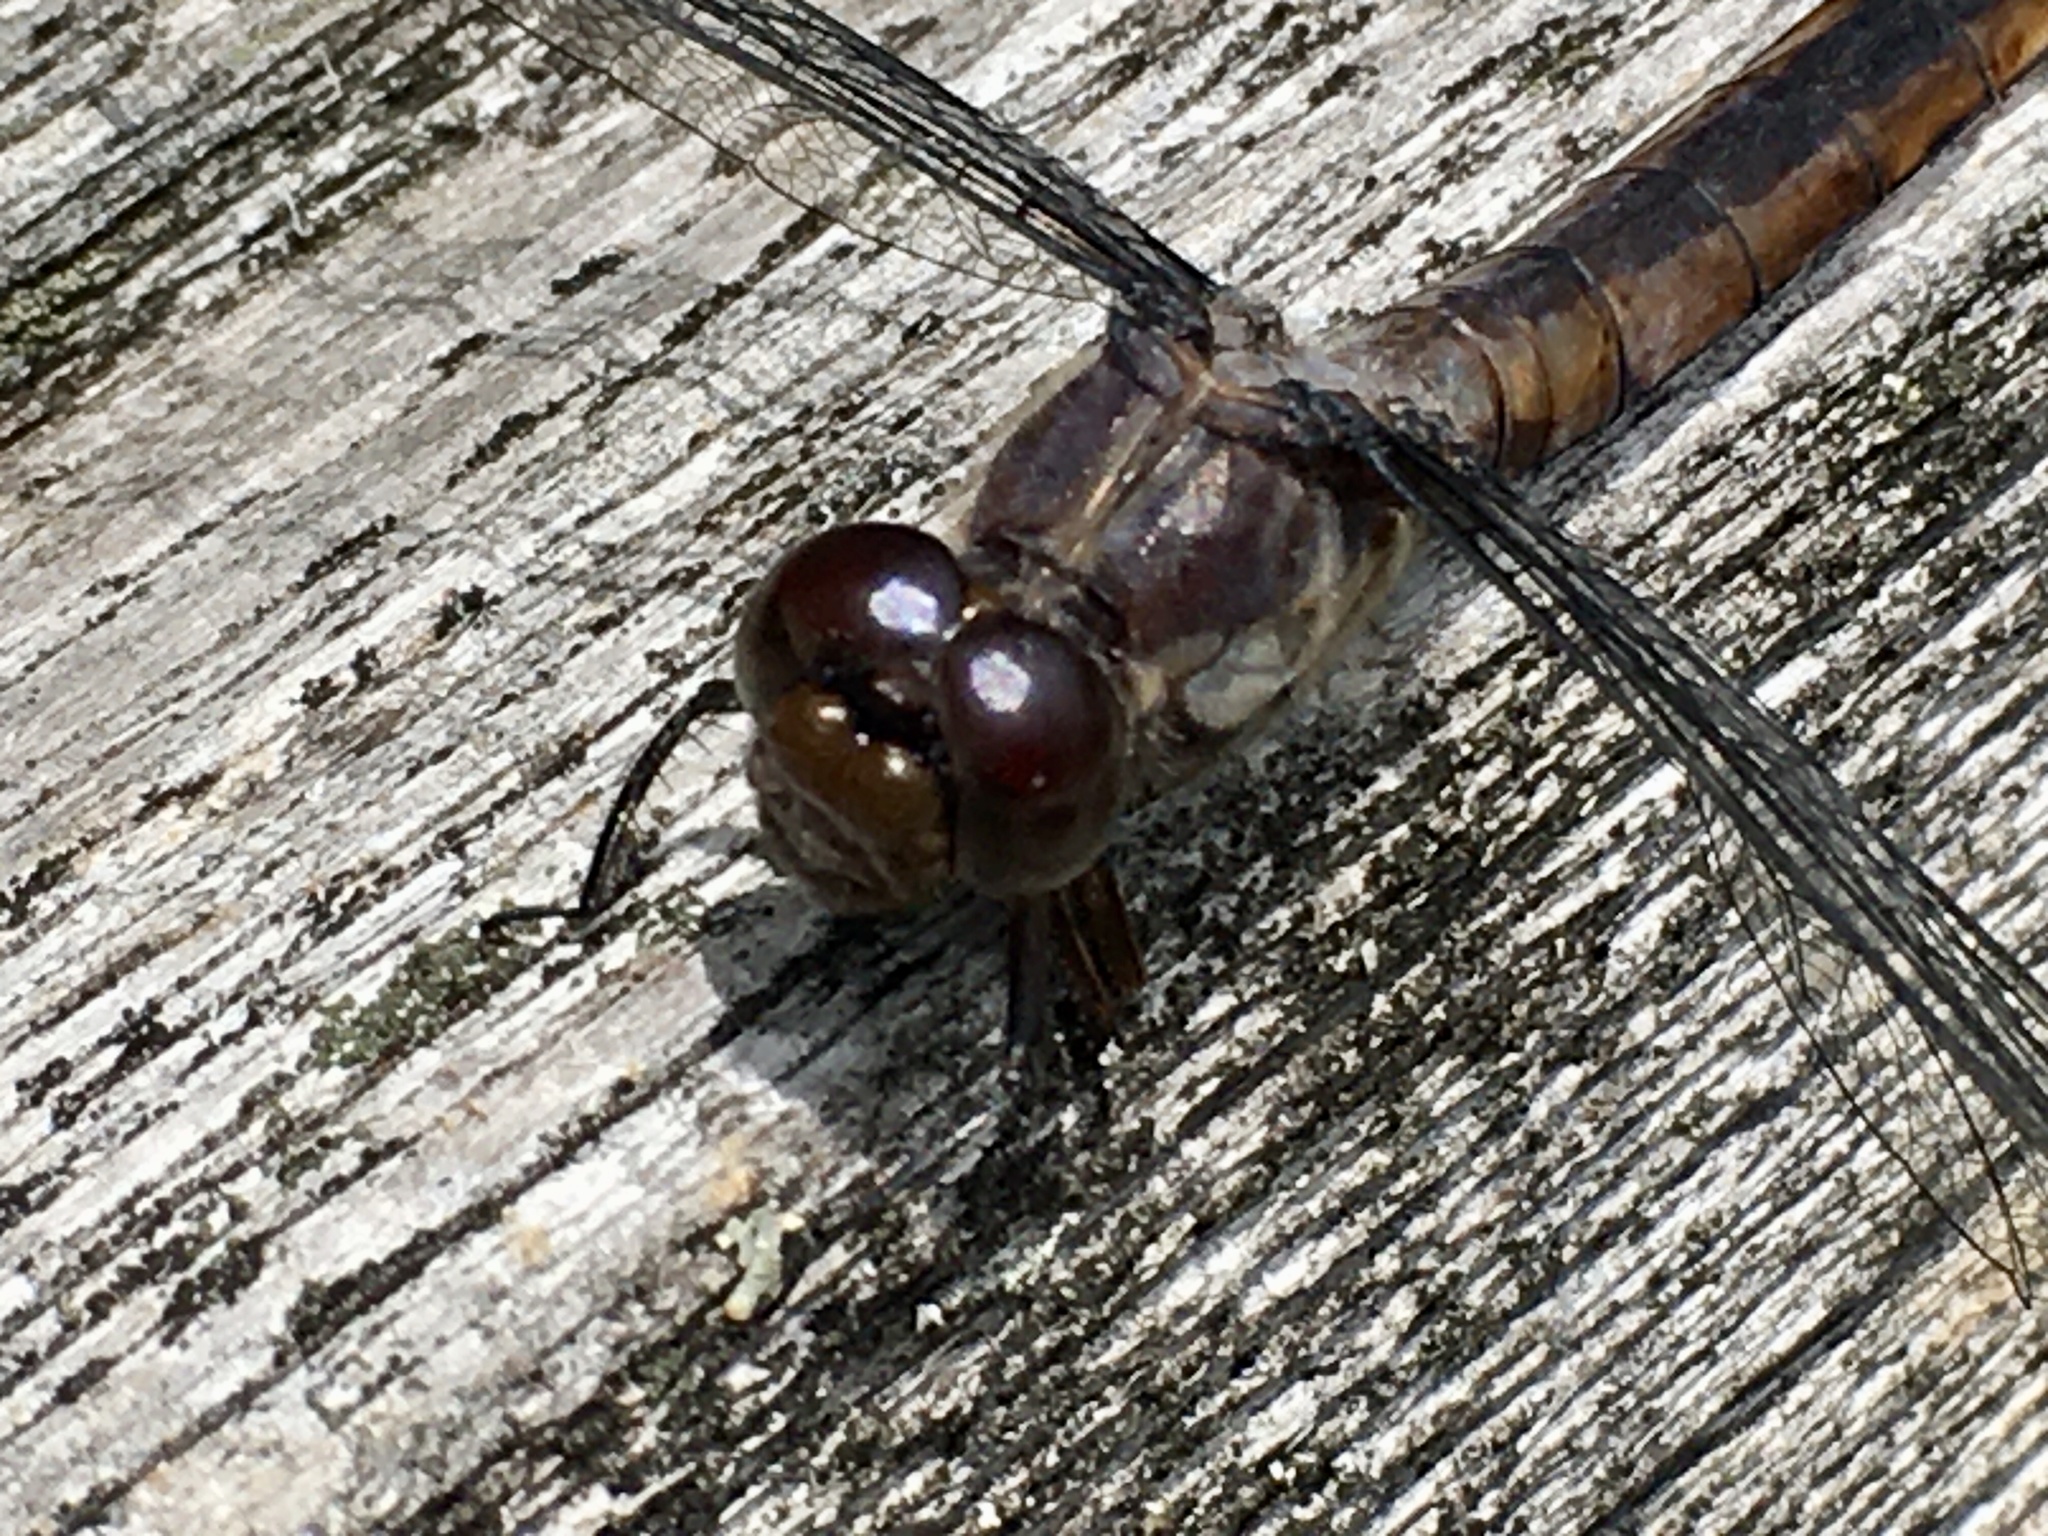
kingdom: Animalia
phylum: Arthropoda
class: Insecta
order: Odonata
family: Libellulidae
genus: Libellula
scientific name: Libellula incesta
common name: Slaty skimmer
